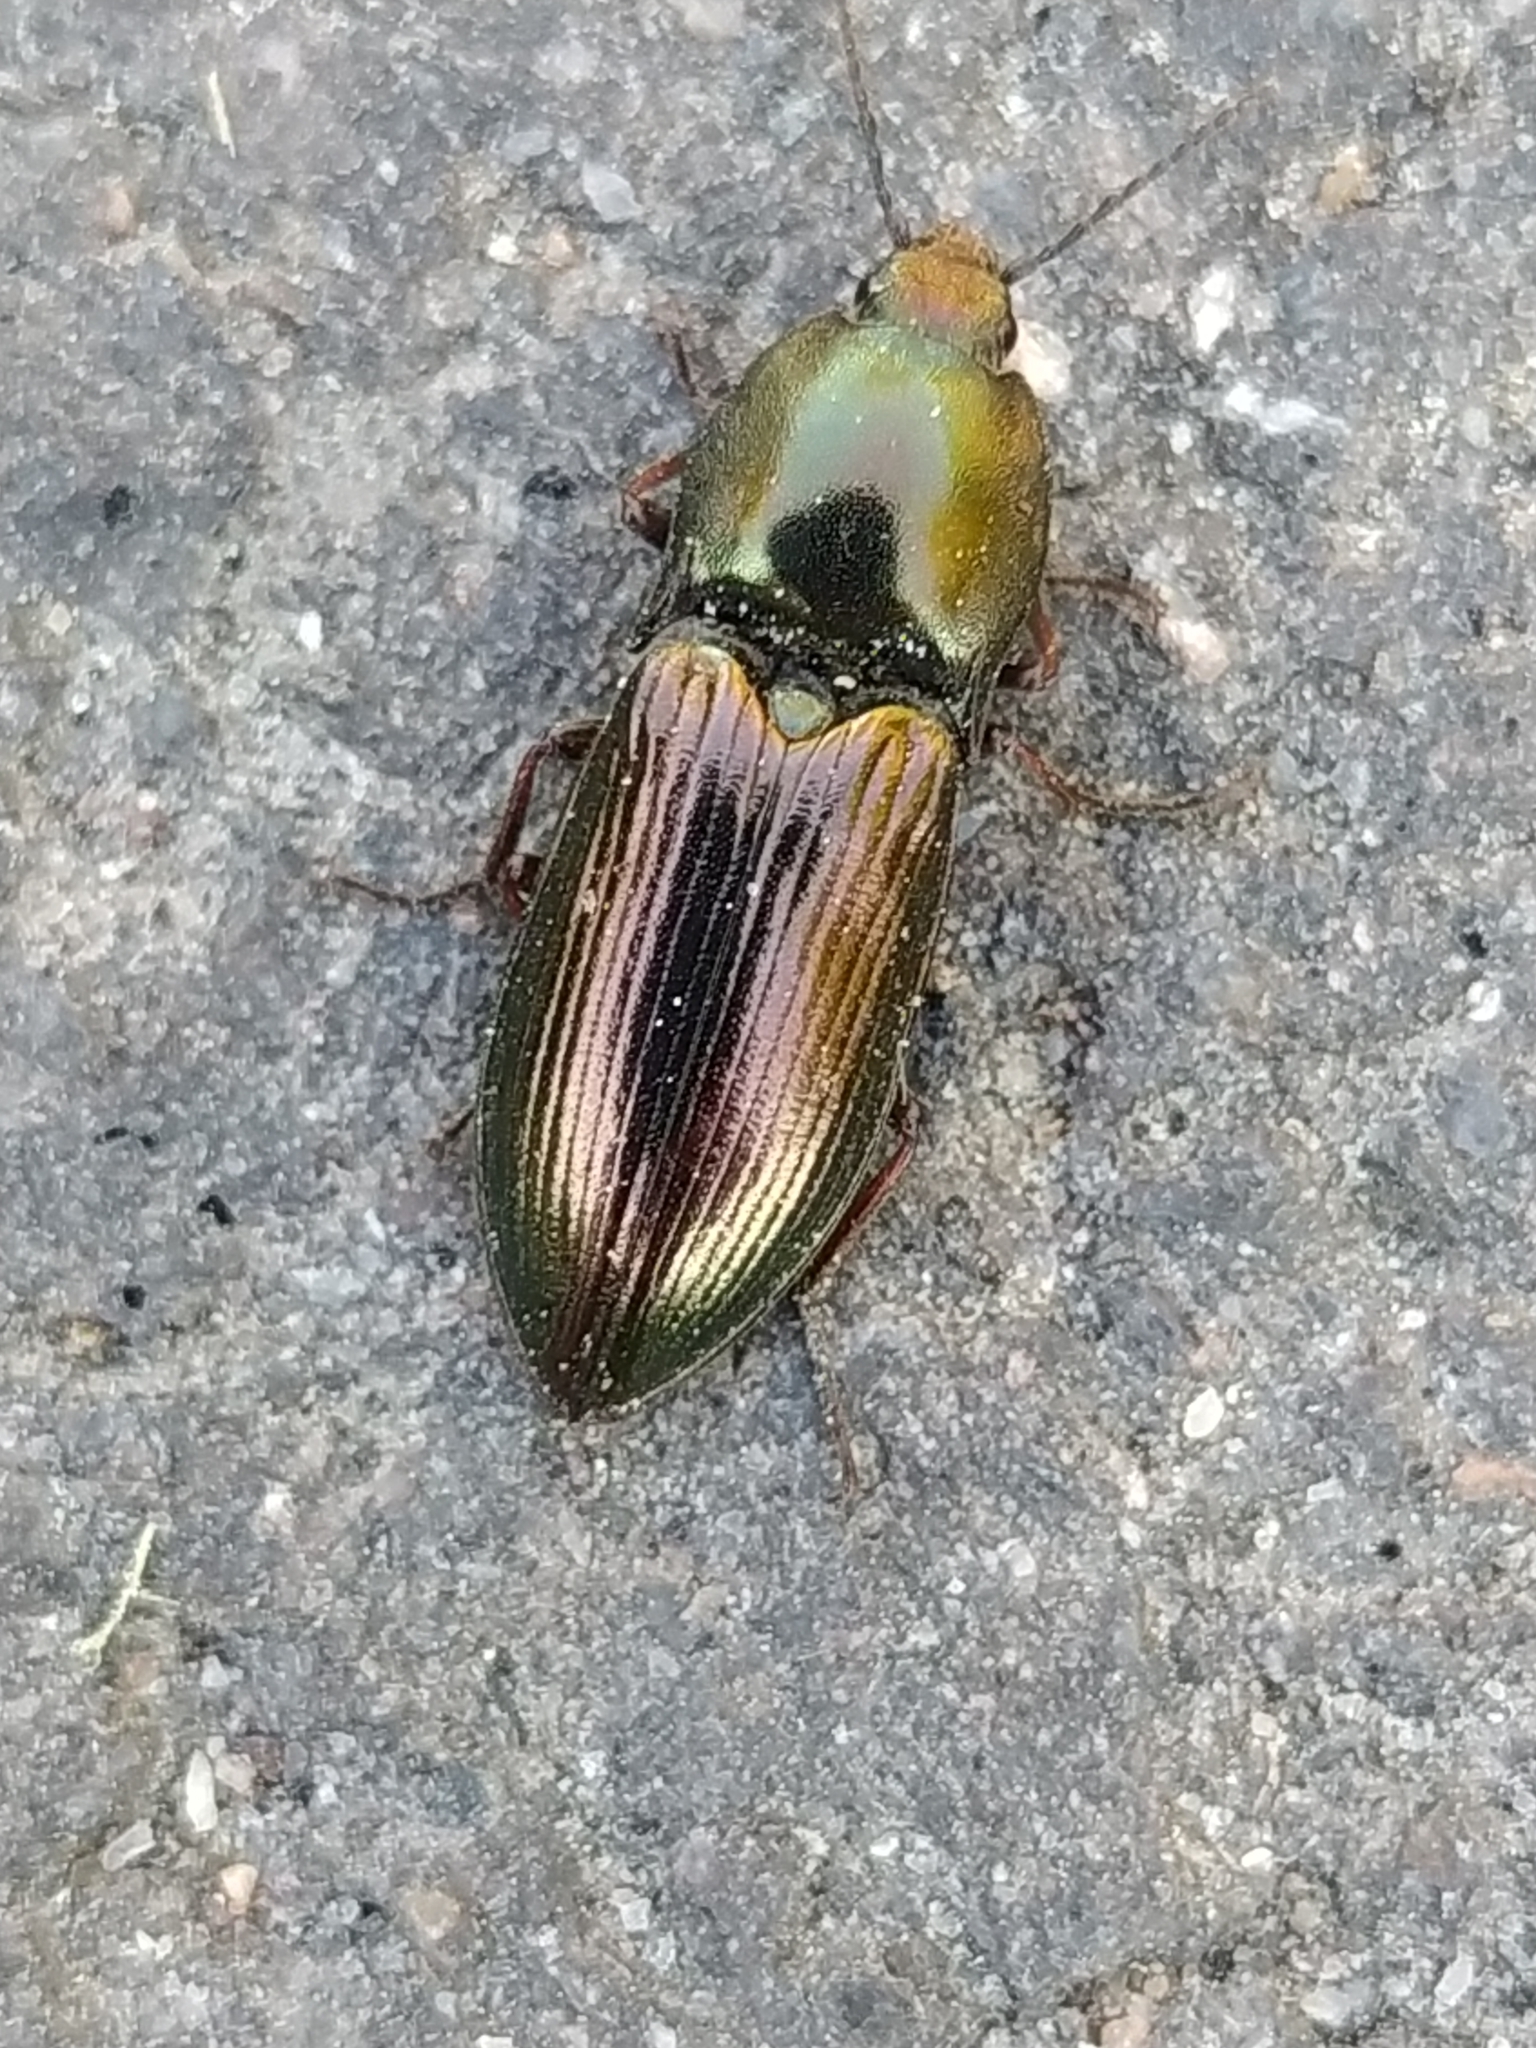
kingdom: Animalia
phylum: Arthropoda
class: Insecta
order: Coleoptera
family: Elateridae
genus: Selatosomus
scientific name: Selatosomus aeneus
